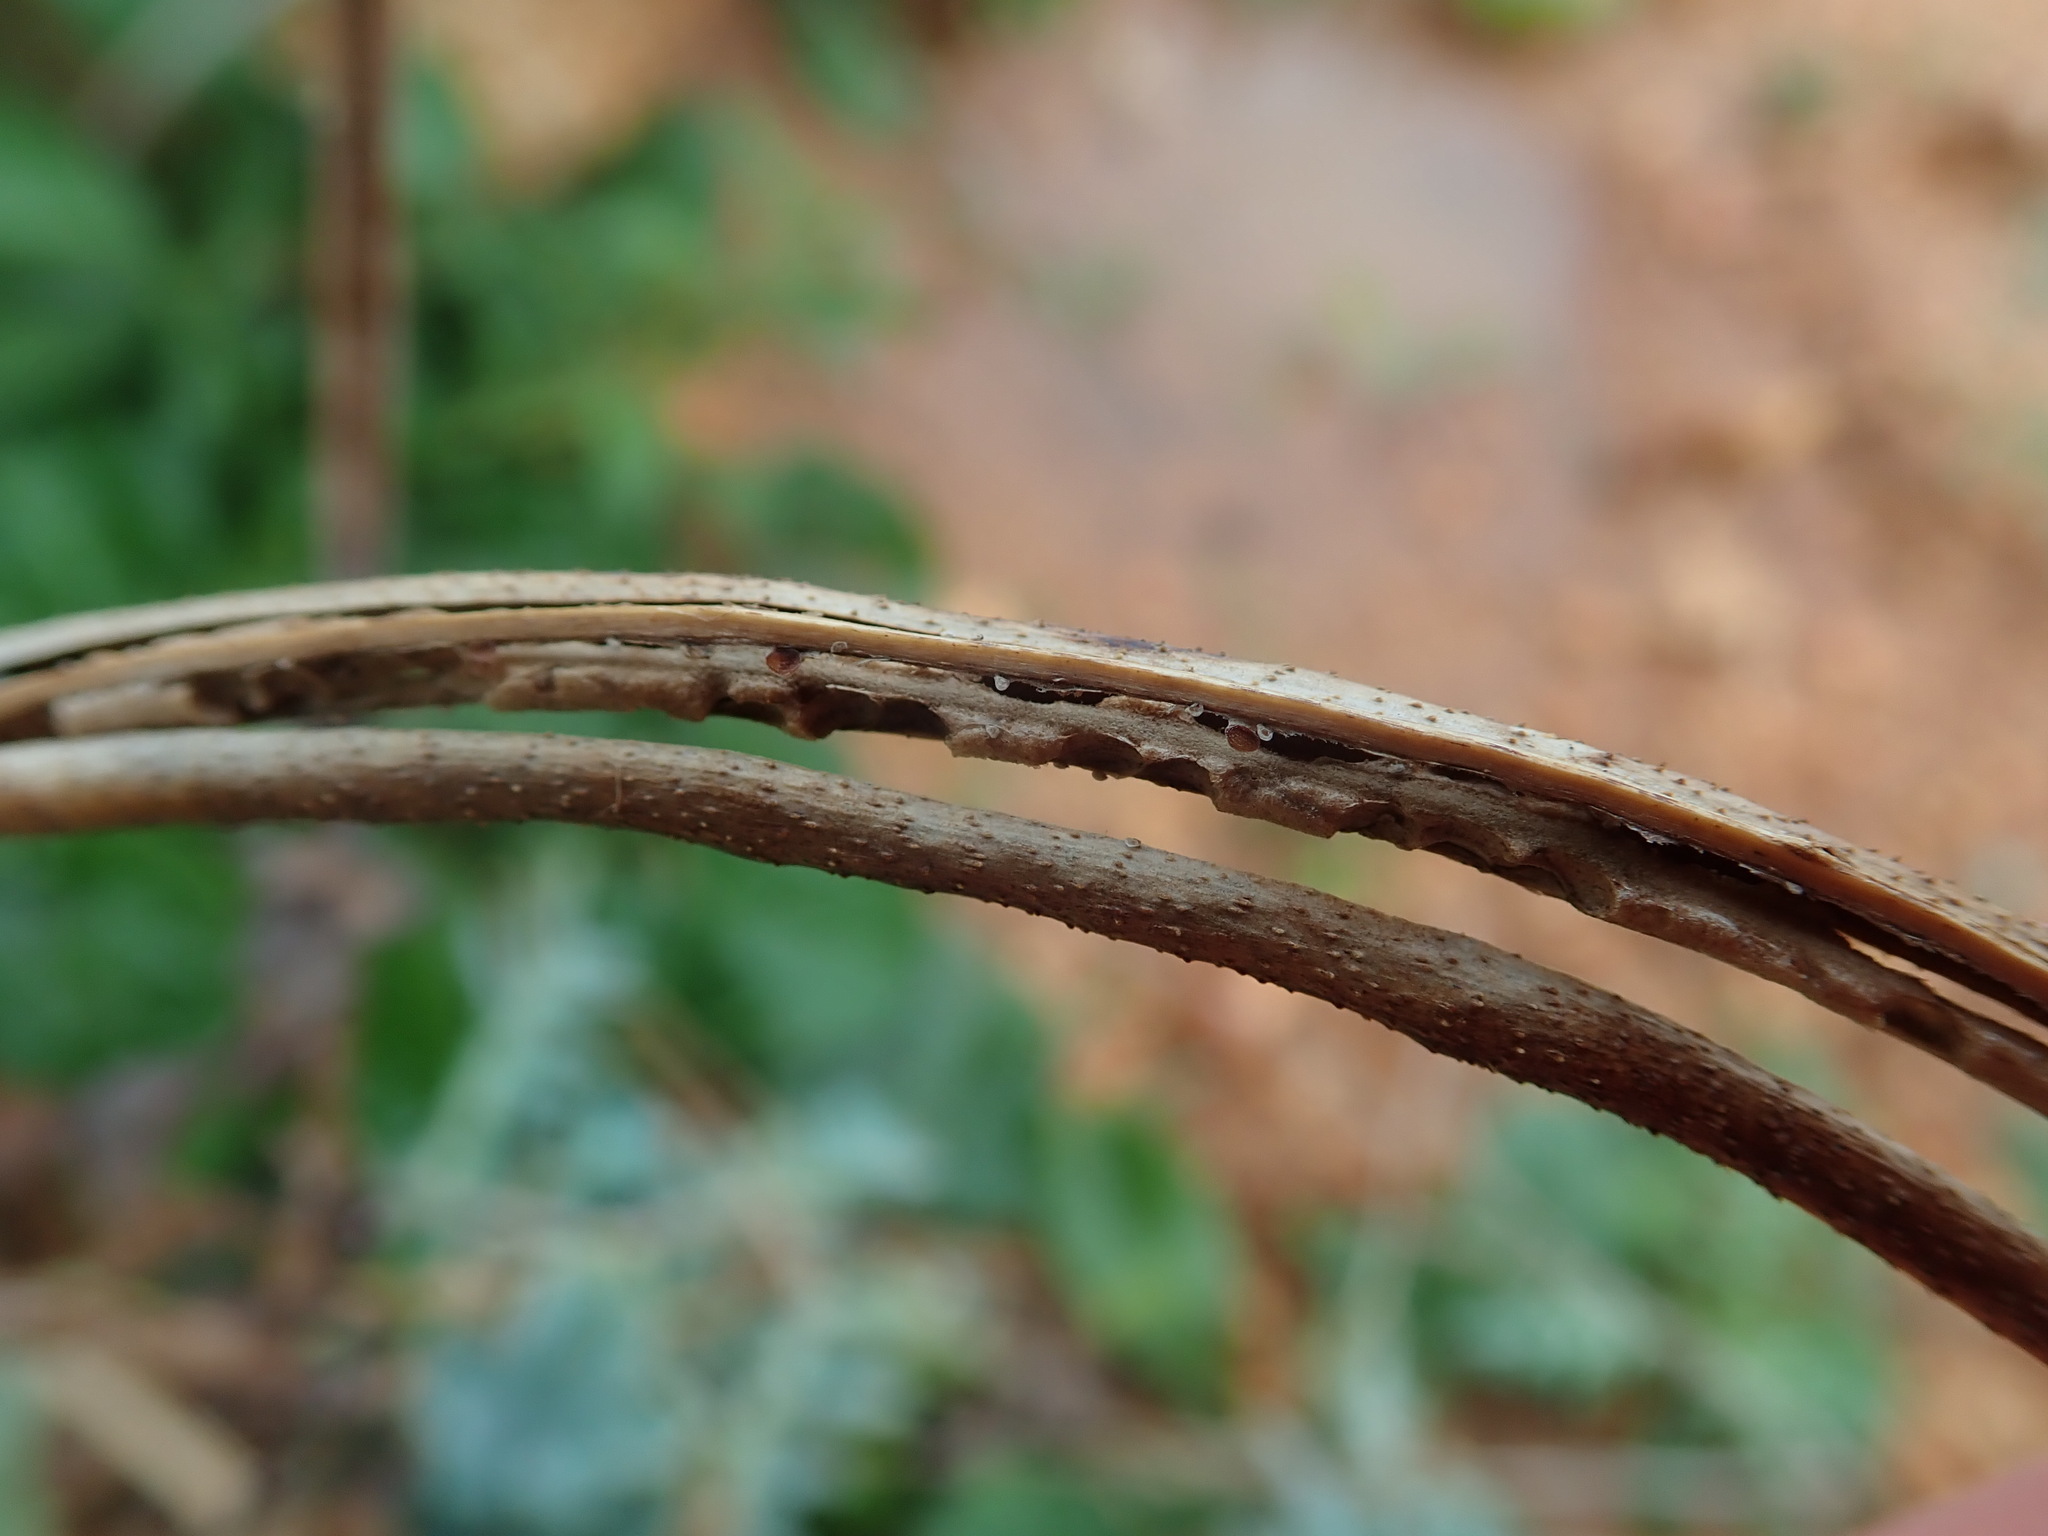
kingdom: Plantae
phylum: Tracheophyta
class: Magnoliopsida
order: Ranunculales
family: Papaveraceae
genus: Glaucium
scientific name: Glaucium flavum
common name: Yellow horned-poppy
